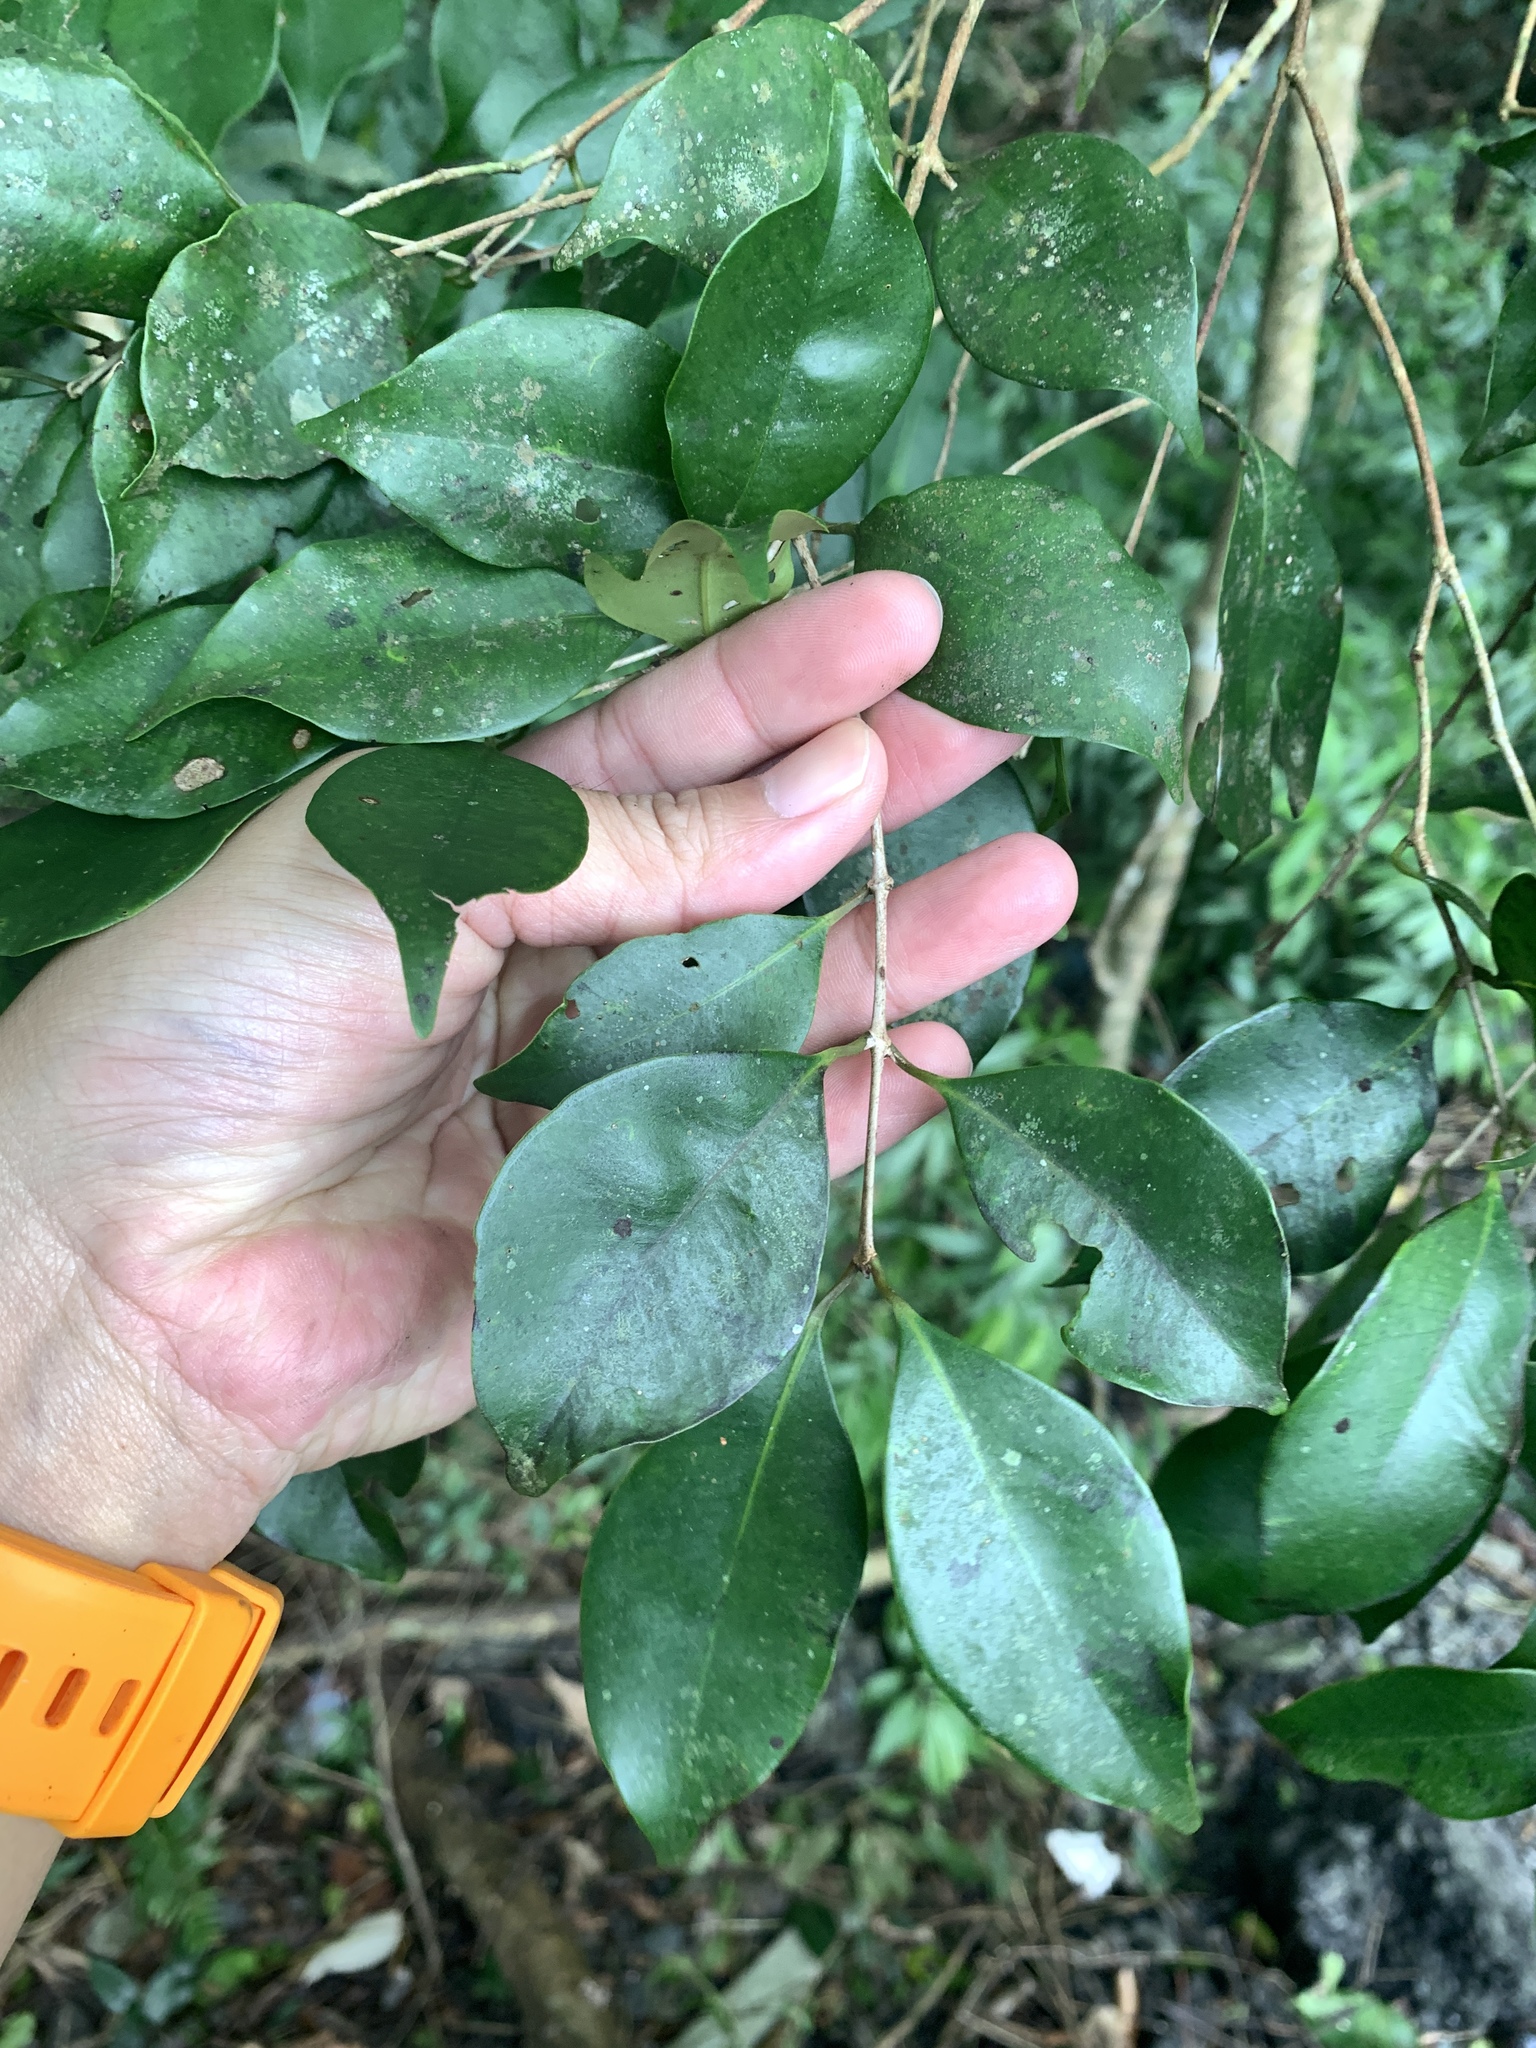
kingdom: Plantae
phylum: Tracheophyta
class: Magnoliopsida
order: Myrtales
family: Myrtaceae
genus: Syzygium
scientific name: Syzygium euphlebium
